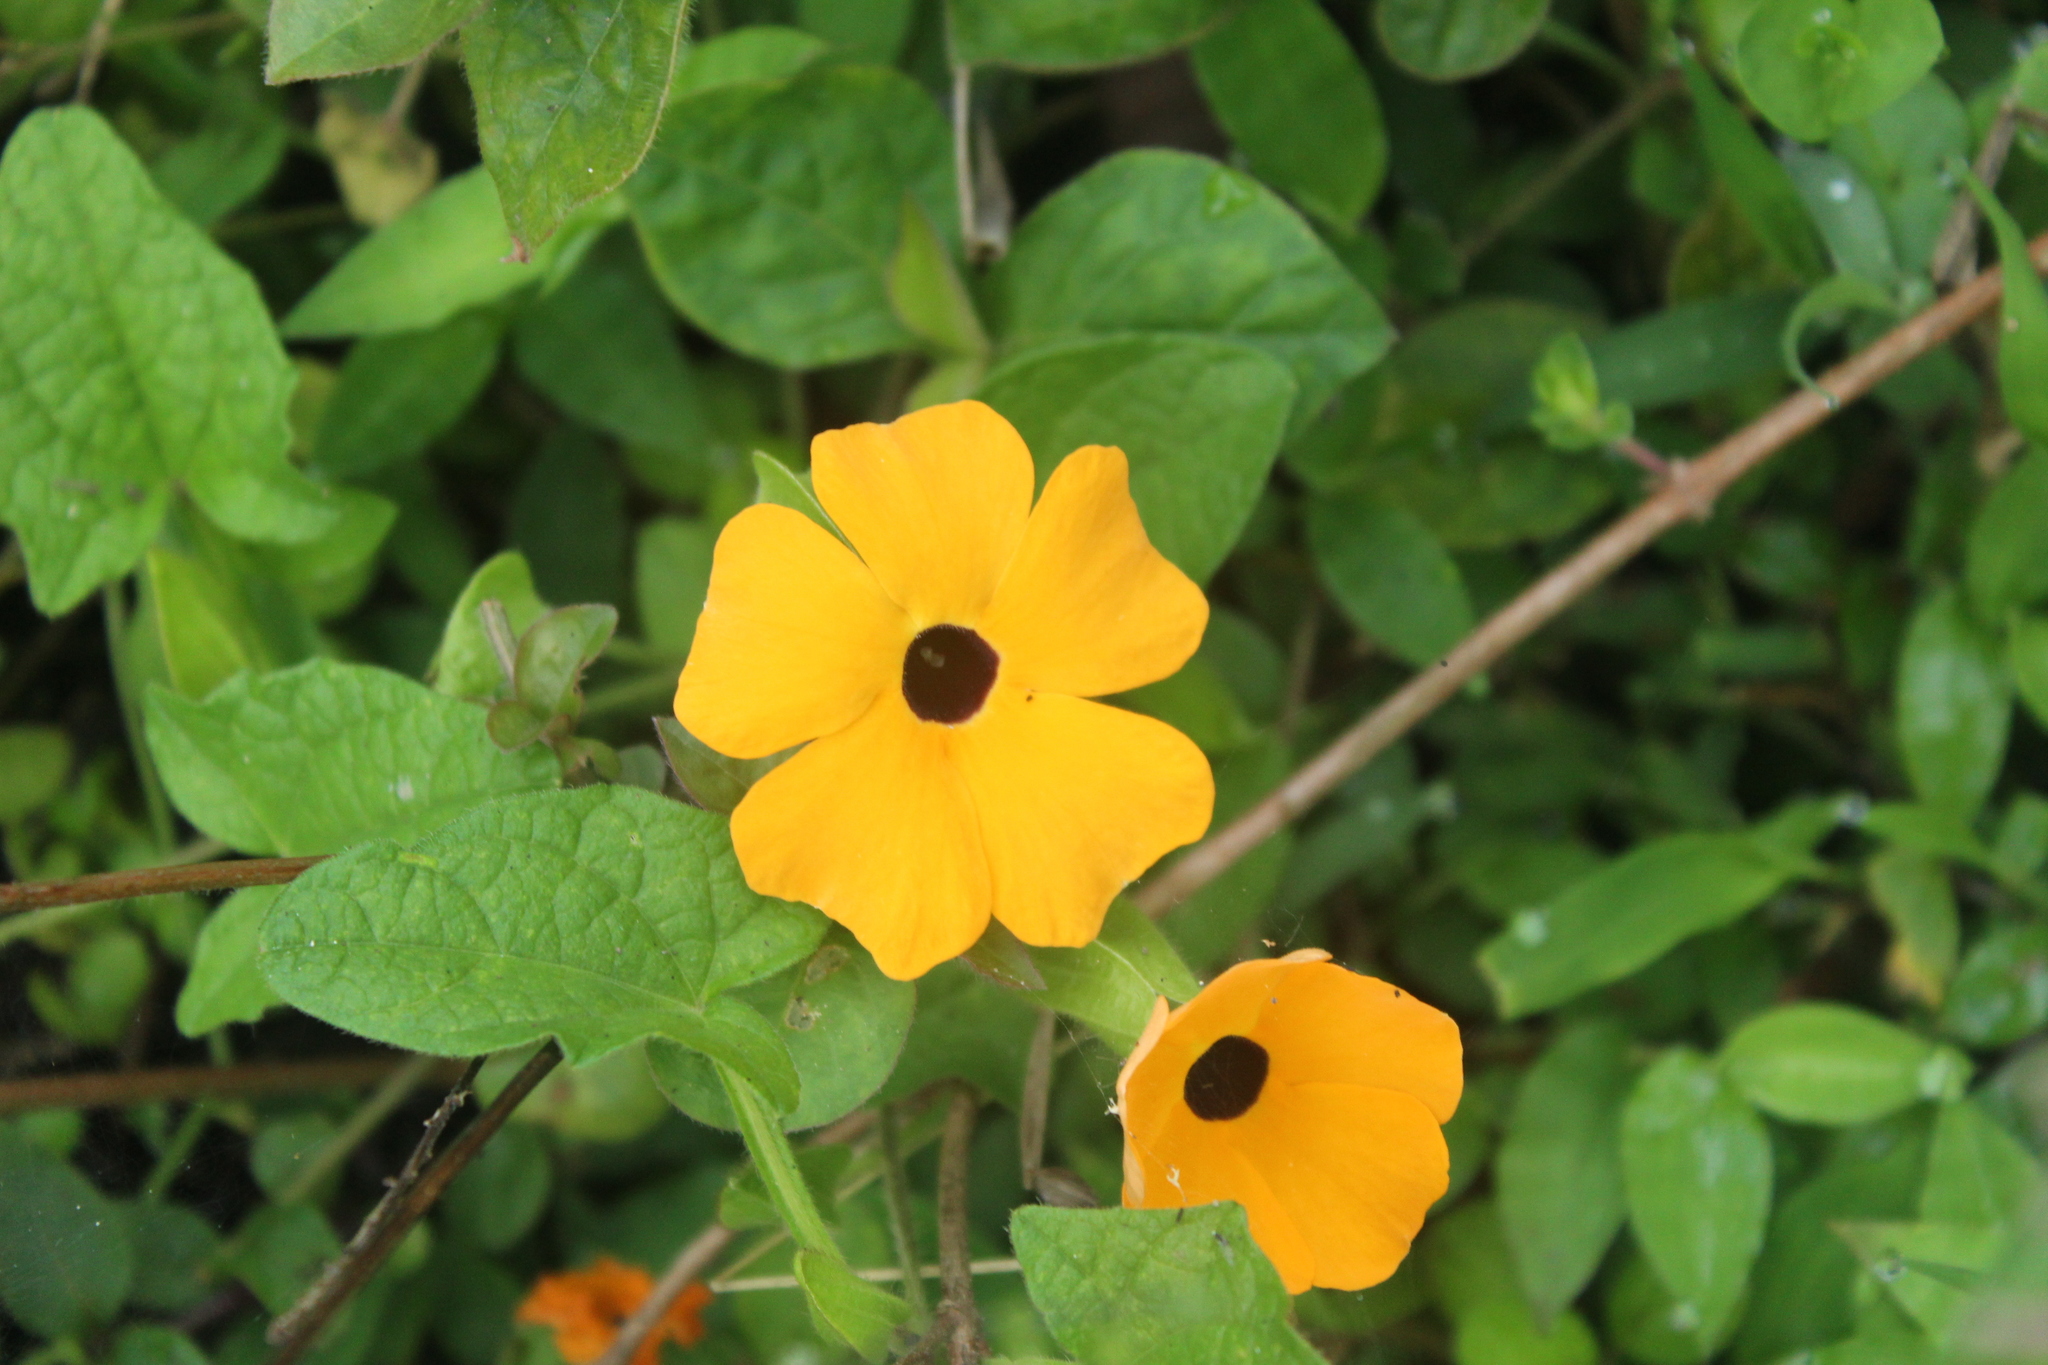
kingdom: Plantae
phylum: Tracheophyta
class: Magnoliopsida
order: Lamiales
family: Acanthaceae
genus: Thunbergia
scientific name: Thunbergia alata
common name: Blackeyed susan vine
